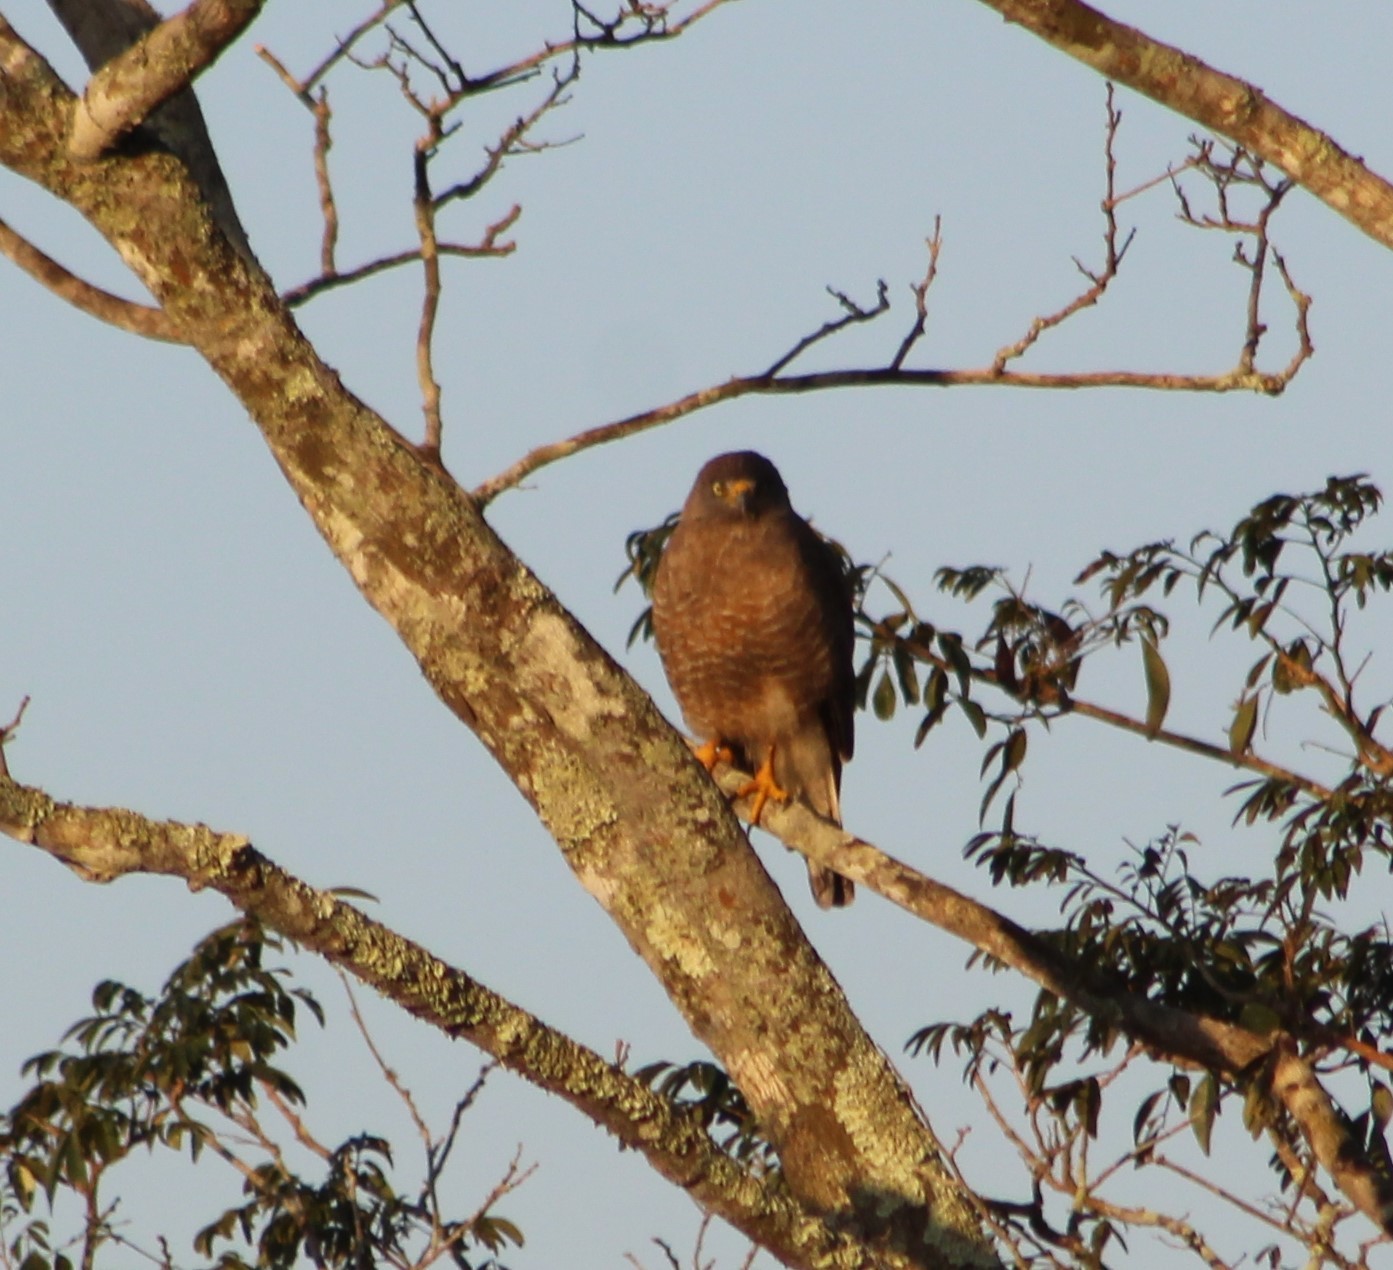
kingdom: Animalia
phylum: Chordata
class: Aves
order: Accipitriformes
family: Accipitridae
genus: Rupornis
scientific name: Rupornis magnirostris
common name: Roadside hawk
